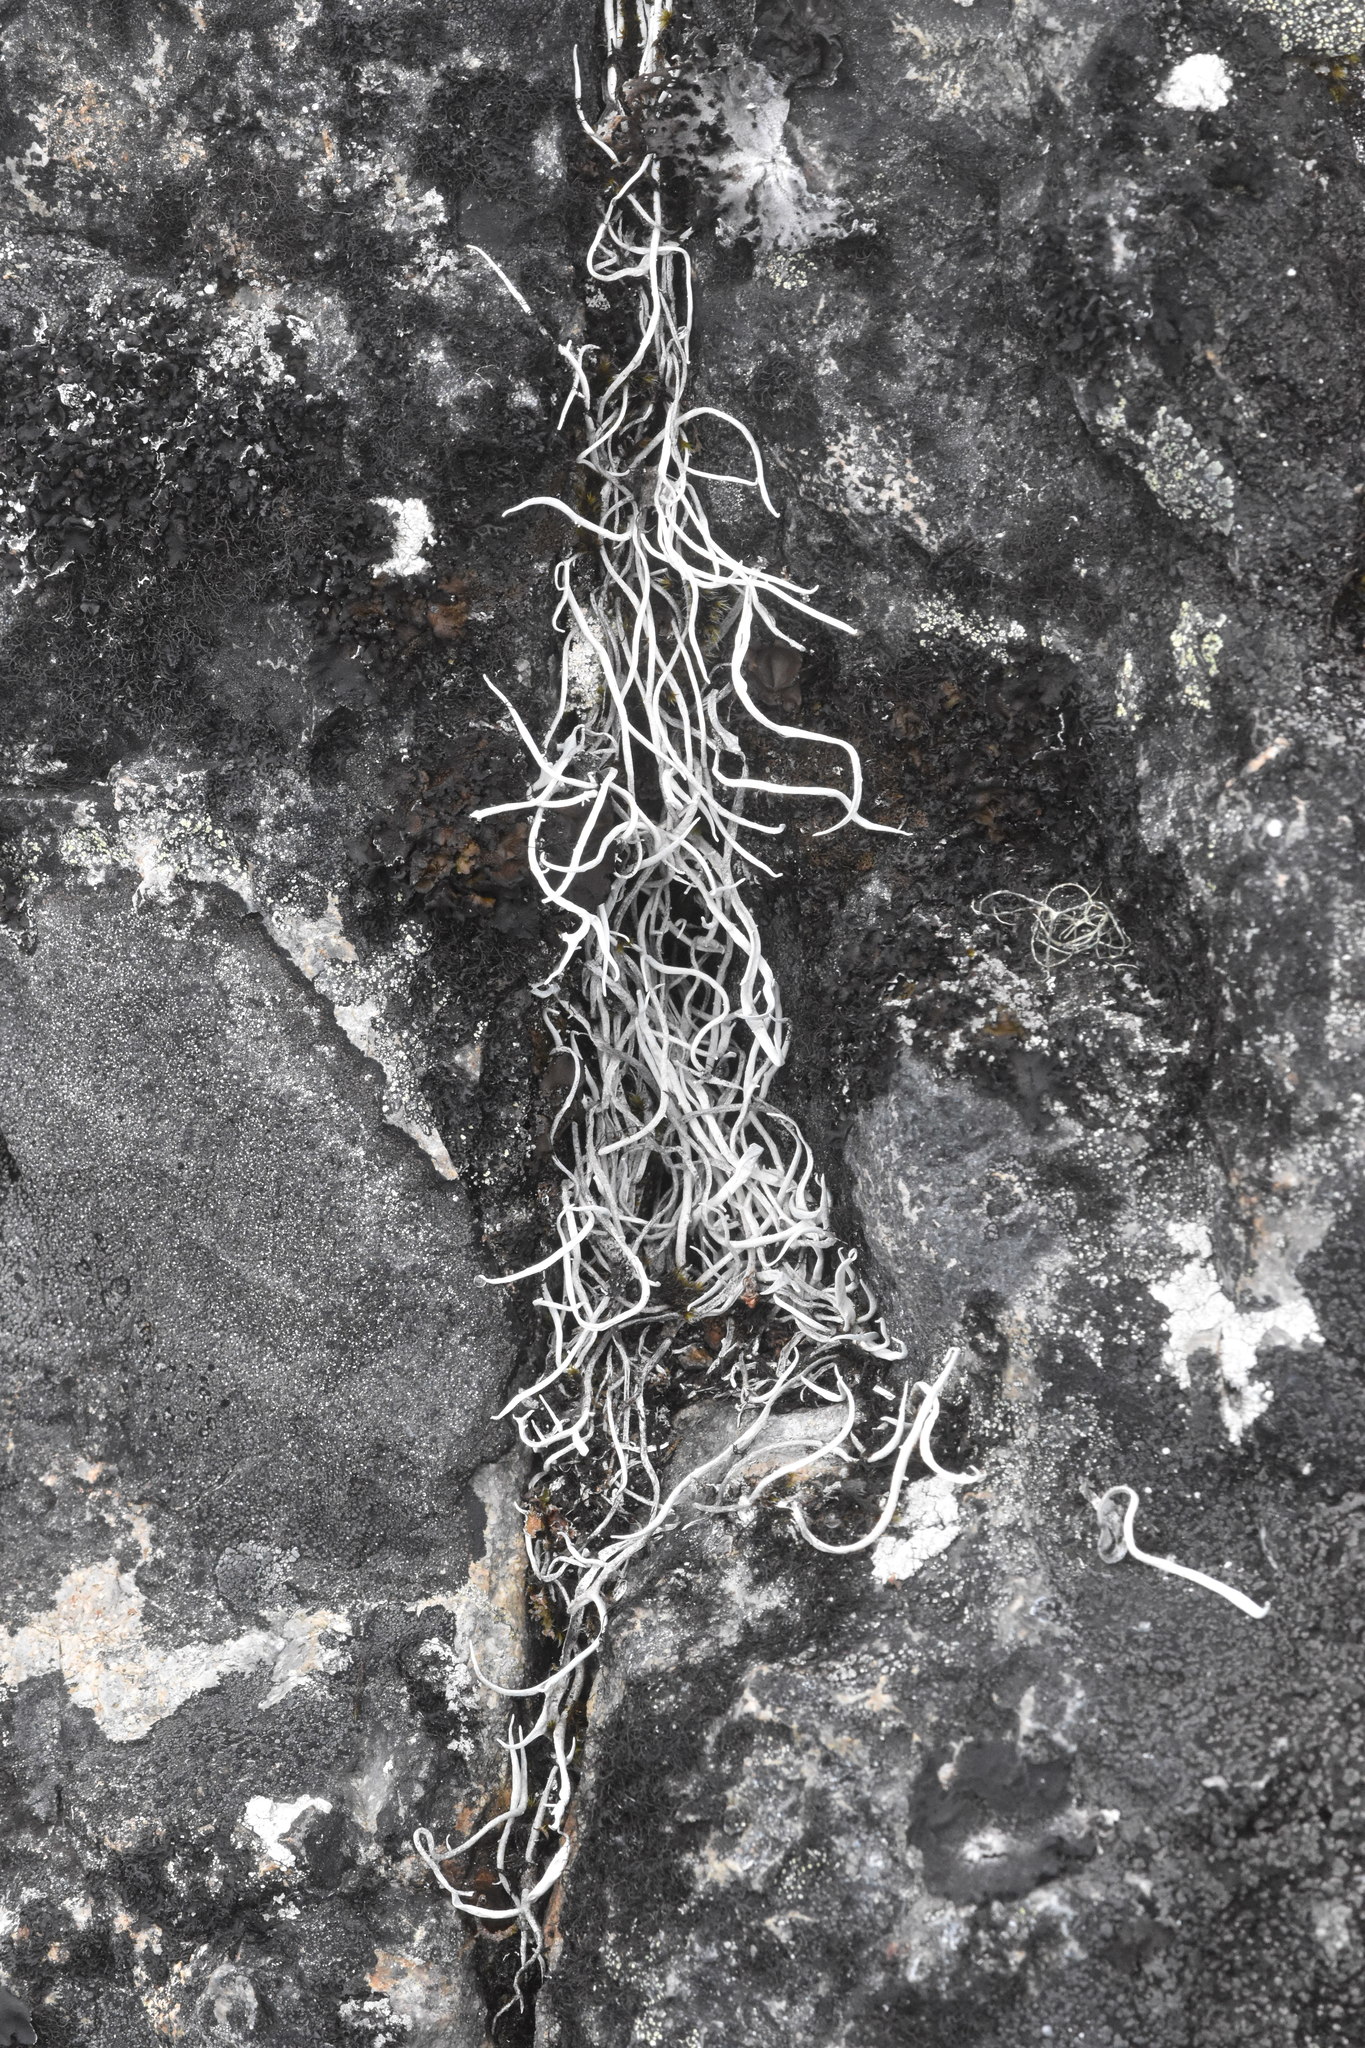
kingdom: Fungi
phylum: Ascomycota
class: Lecanoromycetes
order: Pertusariales
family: Icmadophilaceae
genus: Thamnolia
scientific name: Thamnolia vermicularis
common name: Whiteworm lichen
